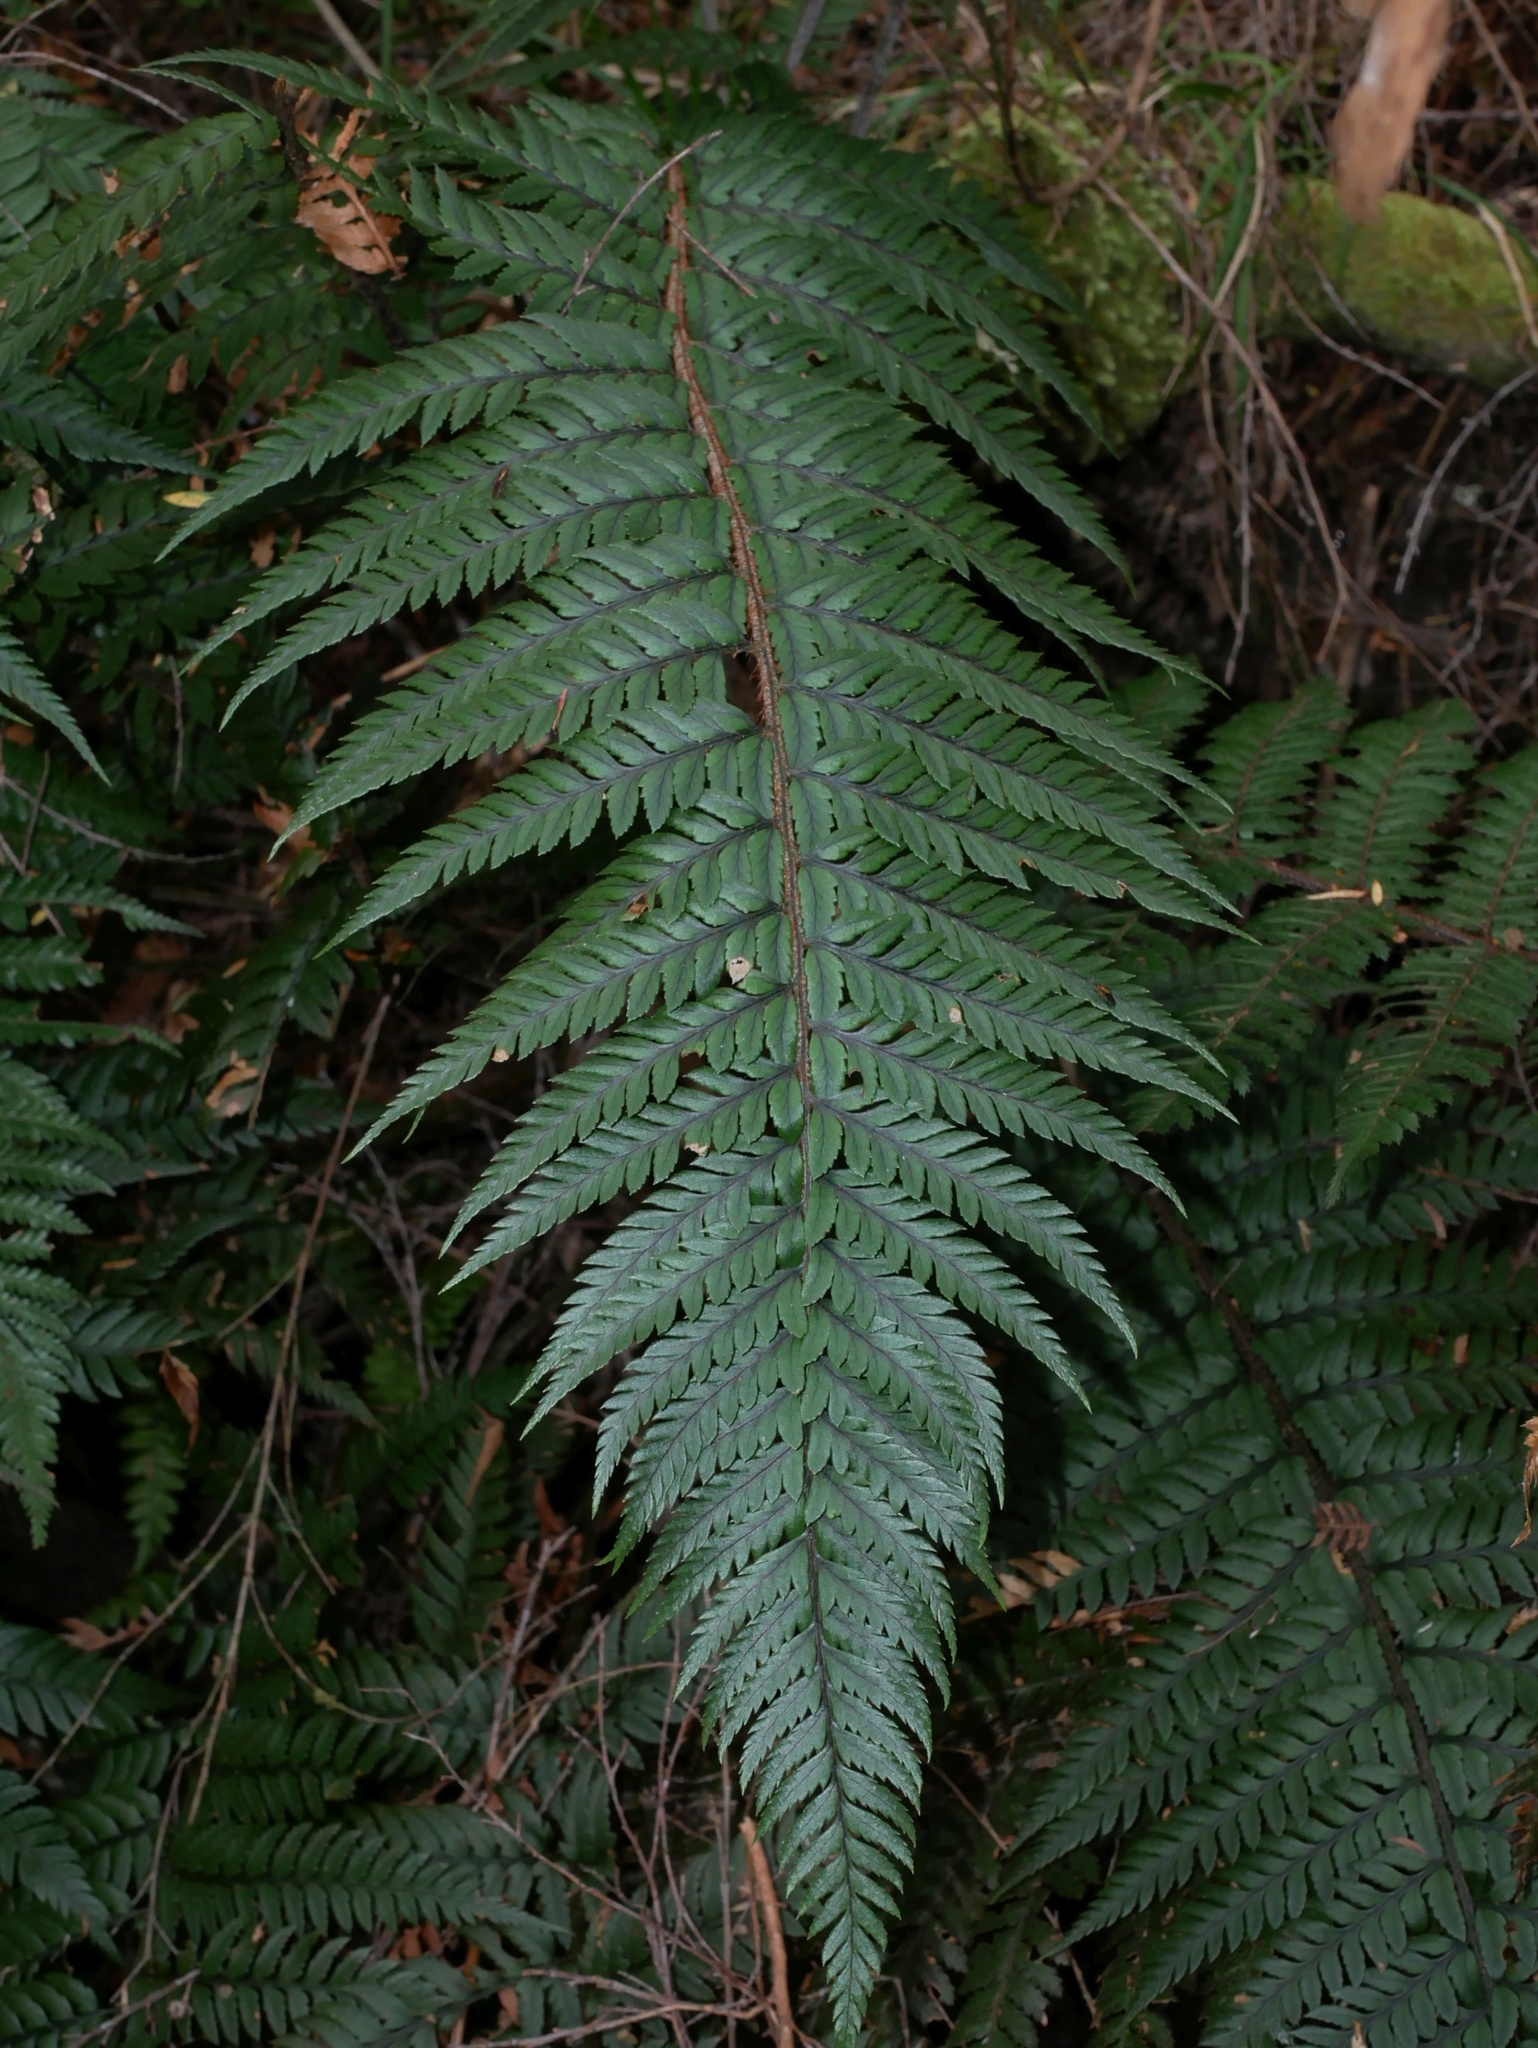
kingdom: Plantae
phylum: Tracheophyta
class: Polypodiopsida
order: Polypodiales
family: Dryopteridaceae
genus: Polystichum
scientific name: Polystichum wawranum
